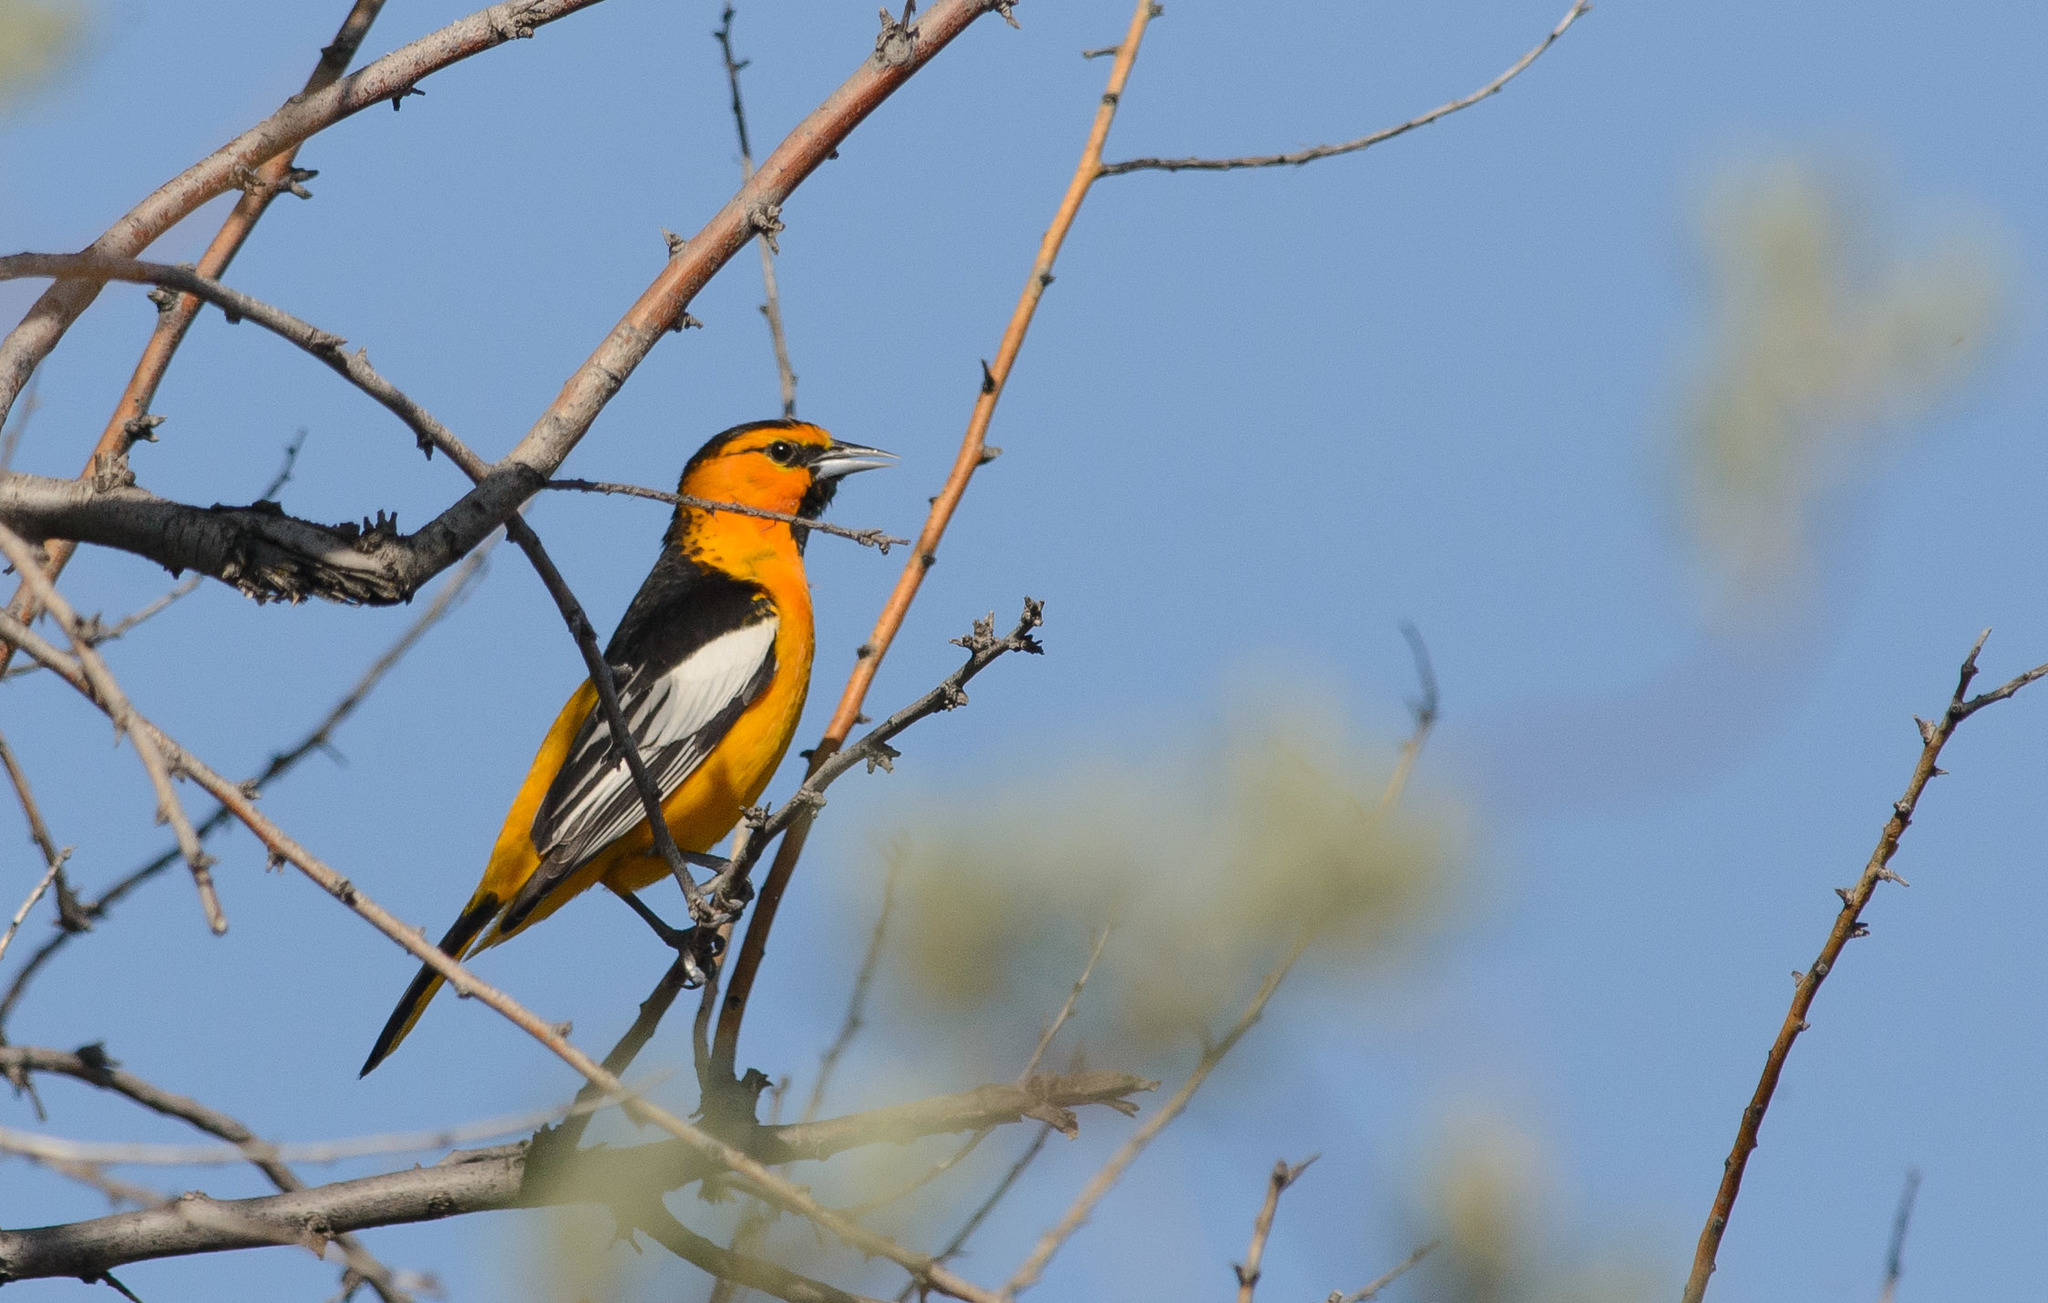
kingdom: Animalia
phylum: Chordata
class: Aves
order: Passeriformes
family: Icteridae
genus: Icterus
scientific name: Icterus bullockii
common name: Bullock's oriole
